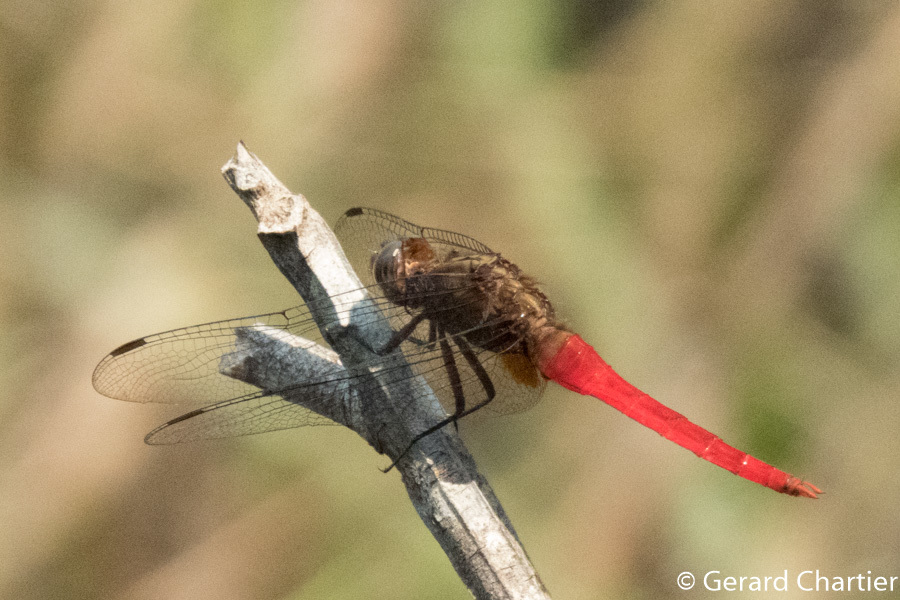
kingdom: Animalia
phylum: Arthropoda
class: Insecta
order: Odonata
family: Libellulidae
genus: Orthetrum
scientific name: Orthetrum chrysis
